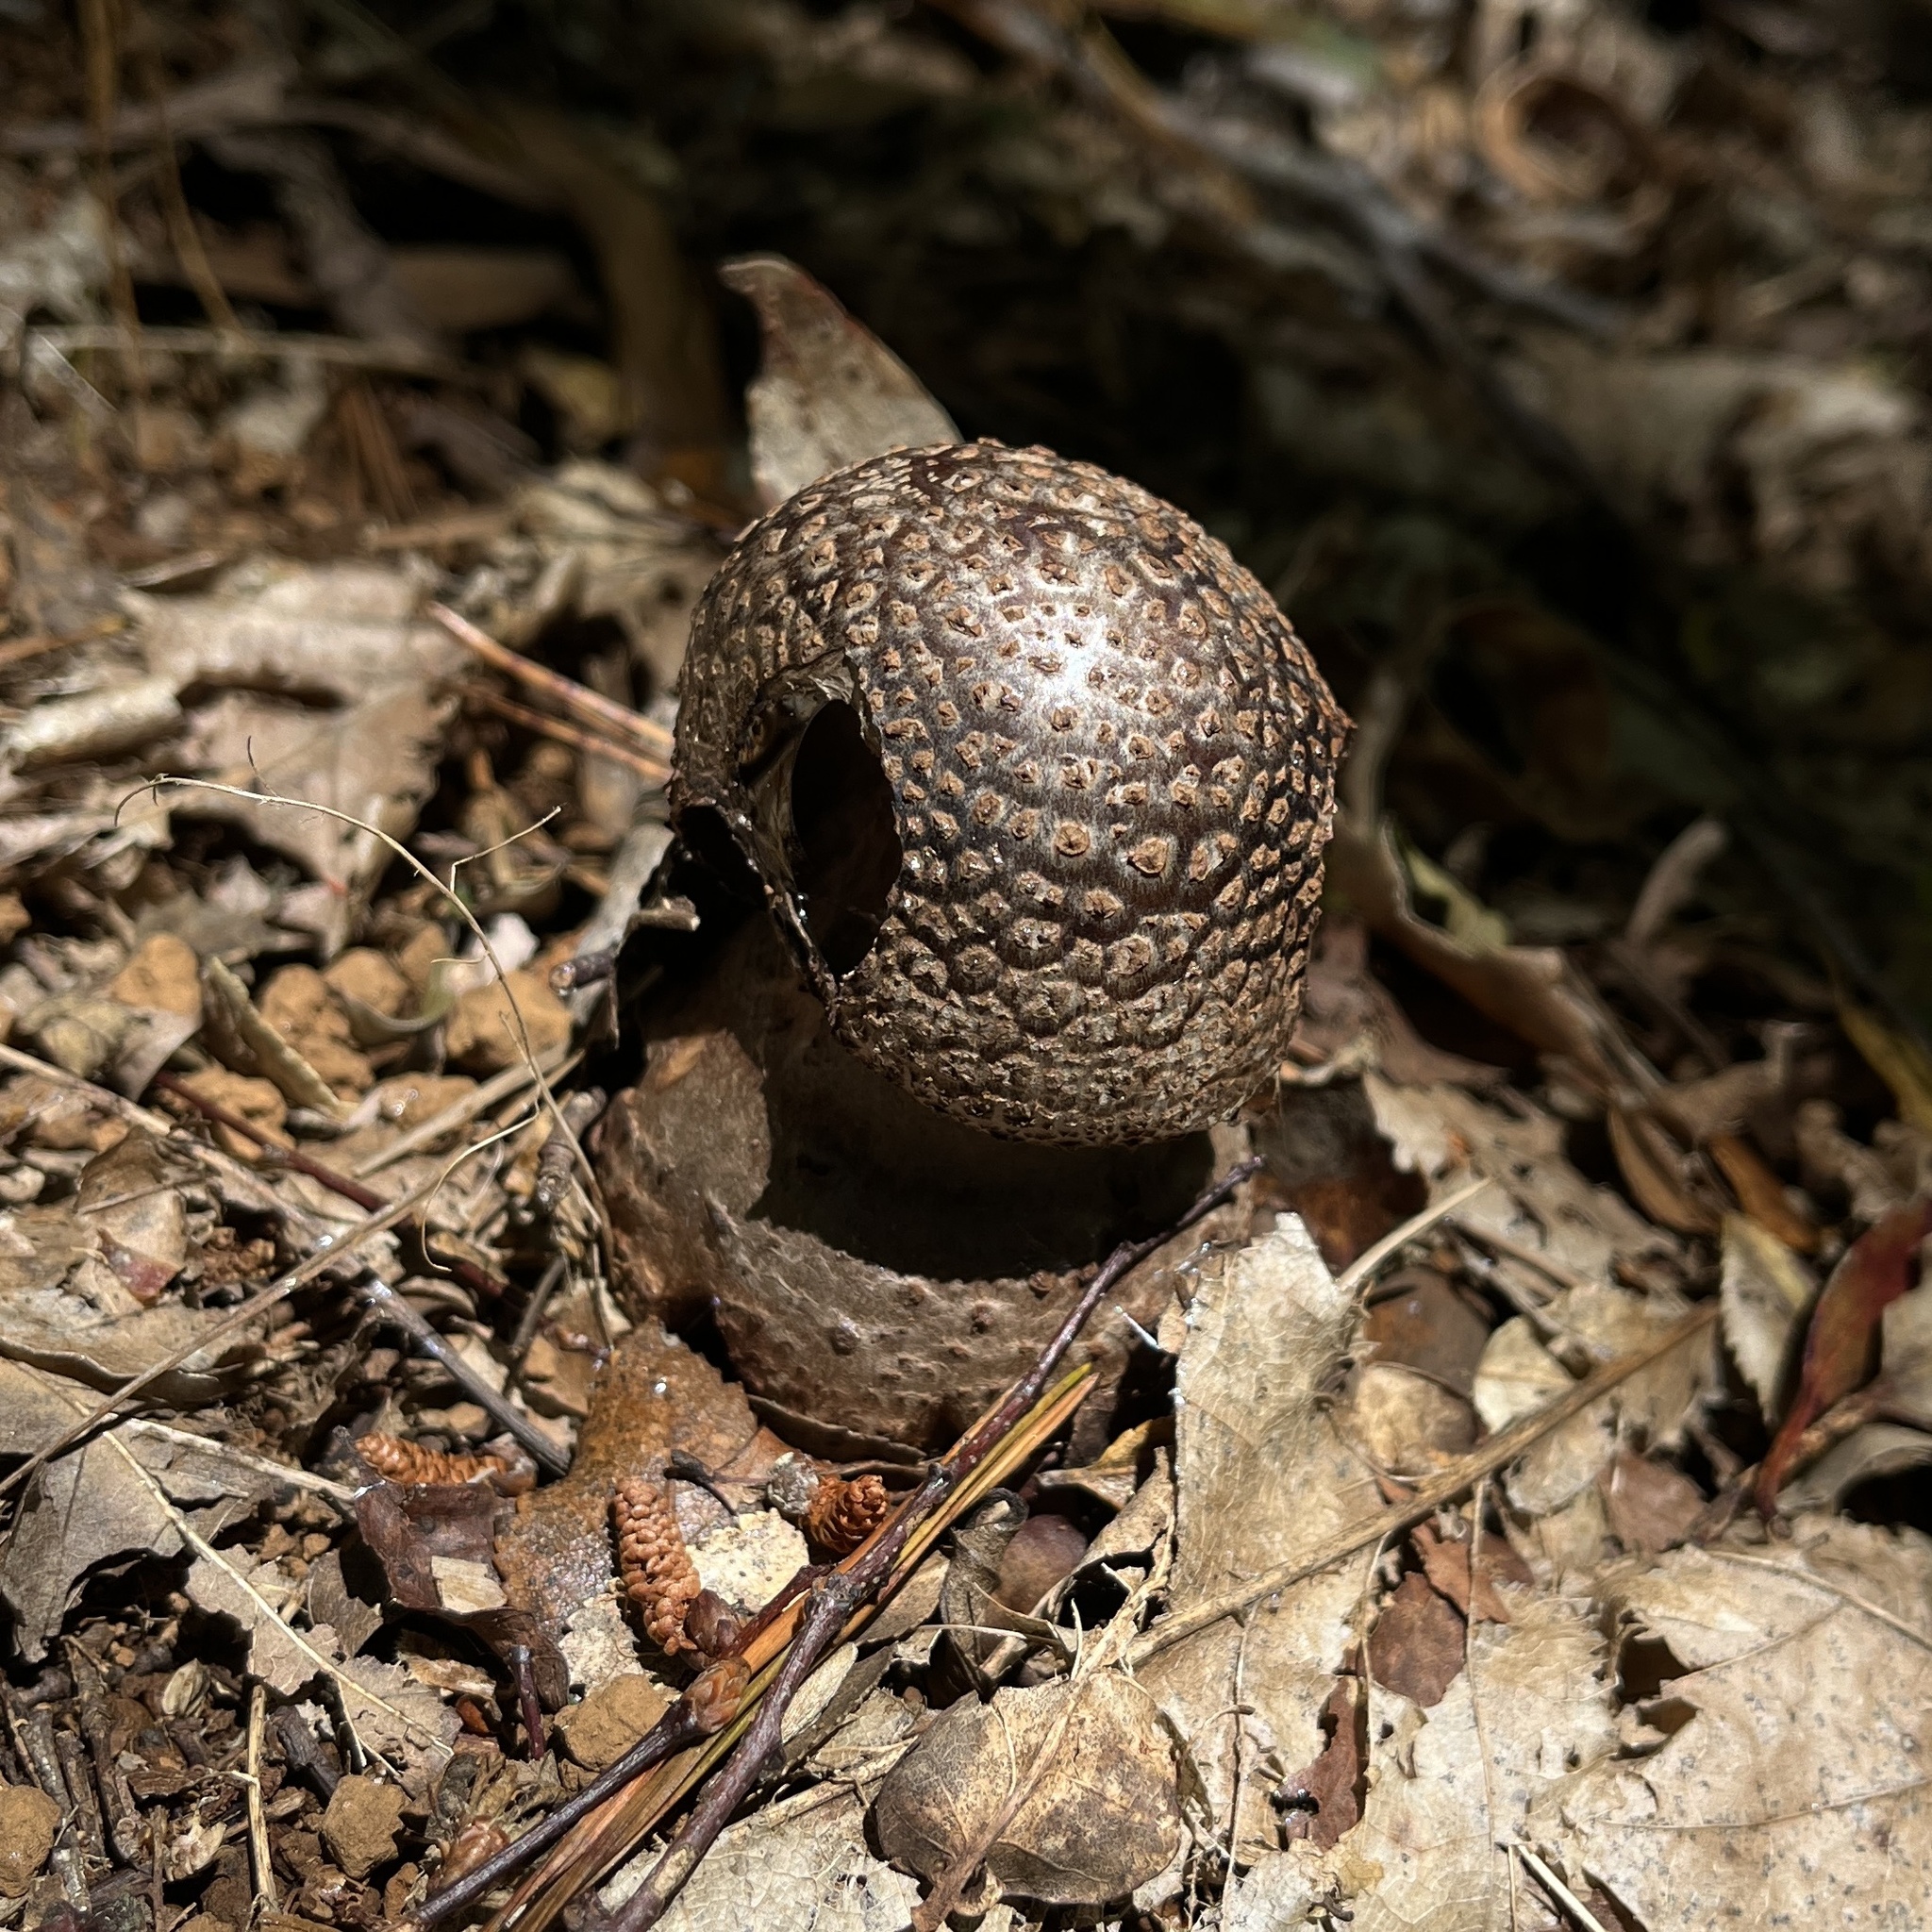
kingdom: Fungi
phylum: Basidiomycota
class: Agaricomycetes
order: Agaricales
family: Amanitaceae
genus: Amanita
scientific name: Amanita rubescens
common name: Blusher
